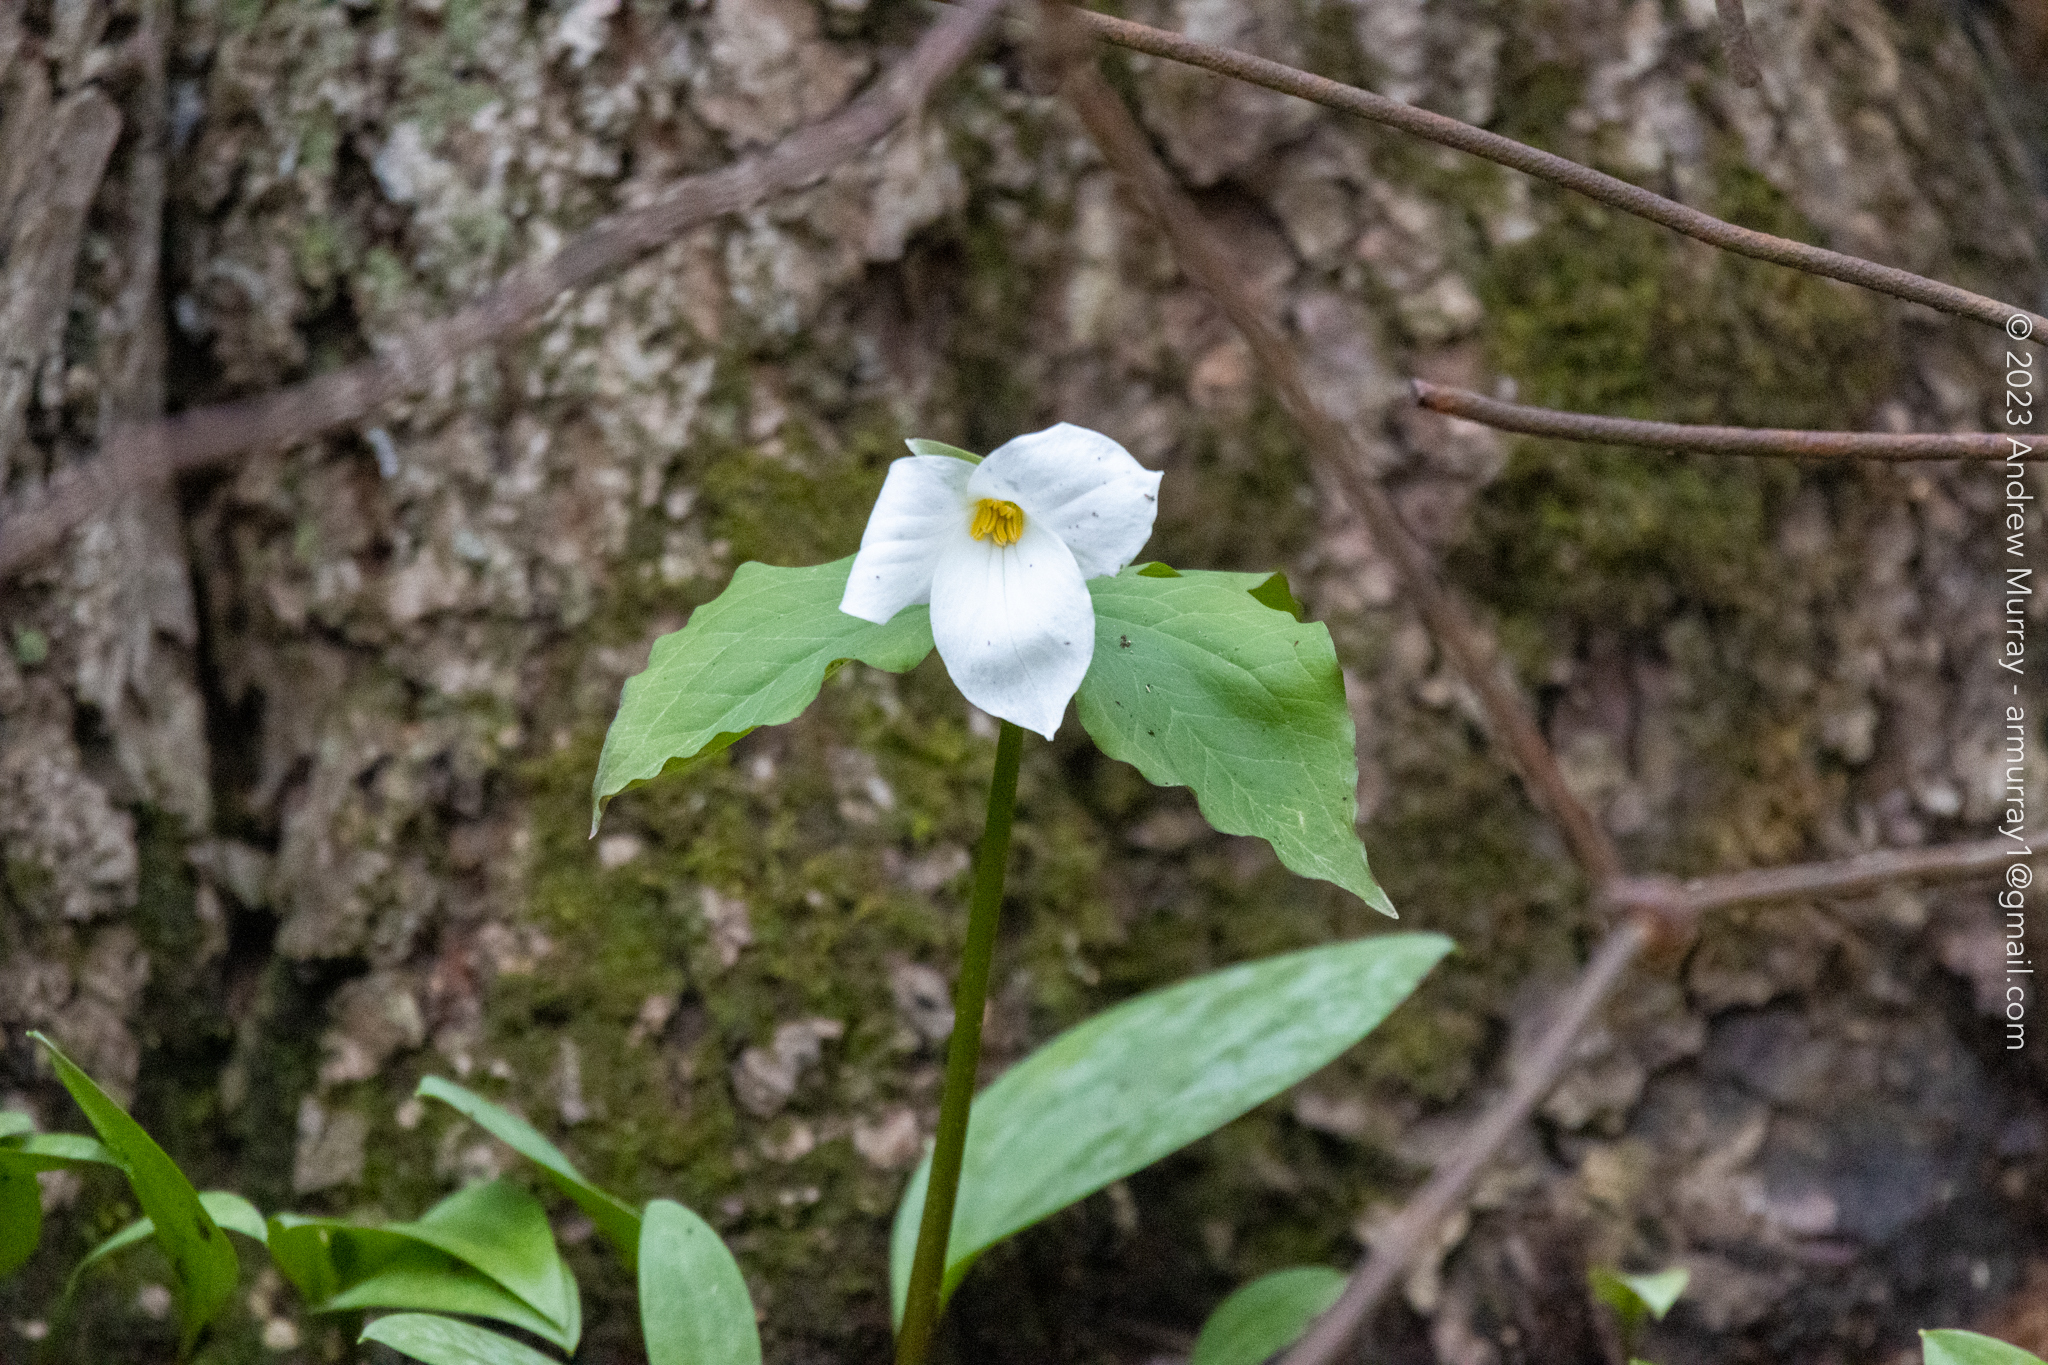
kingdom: Plantae
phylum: Tracheophyta
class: Liliopsida
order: Liliales
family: Melanthiaceae
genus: Trillium
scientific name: Trillium grandiflorum
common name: Great white trillium
